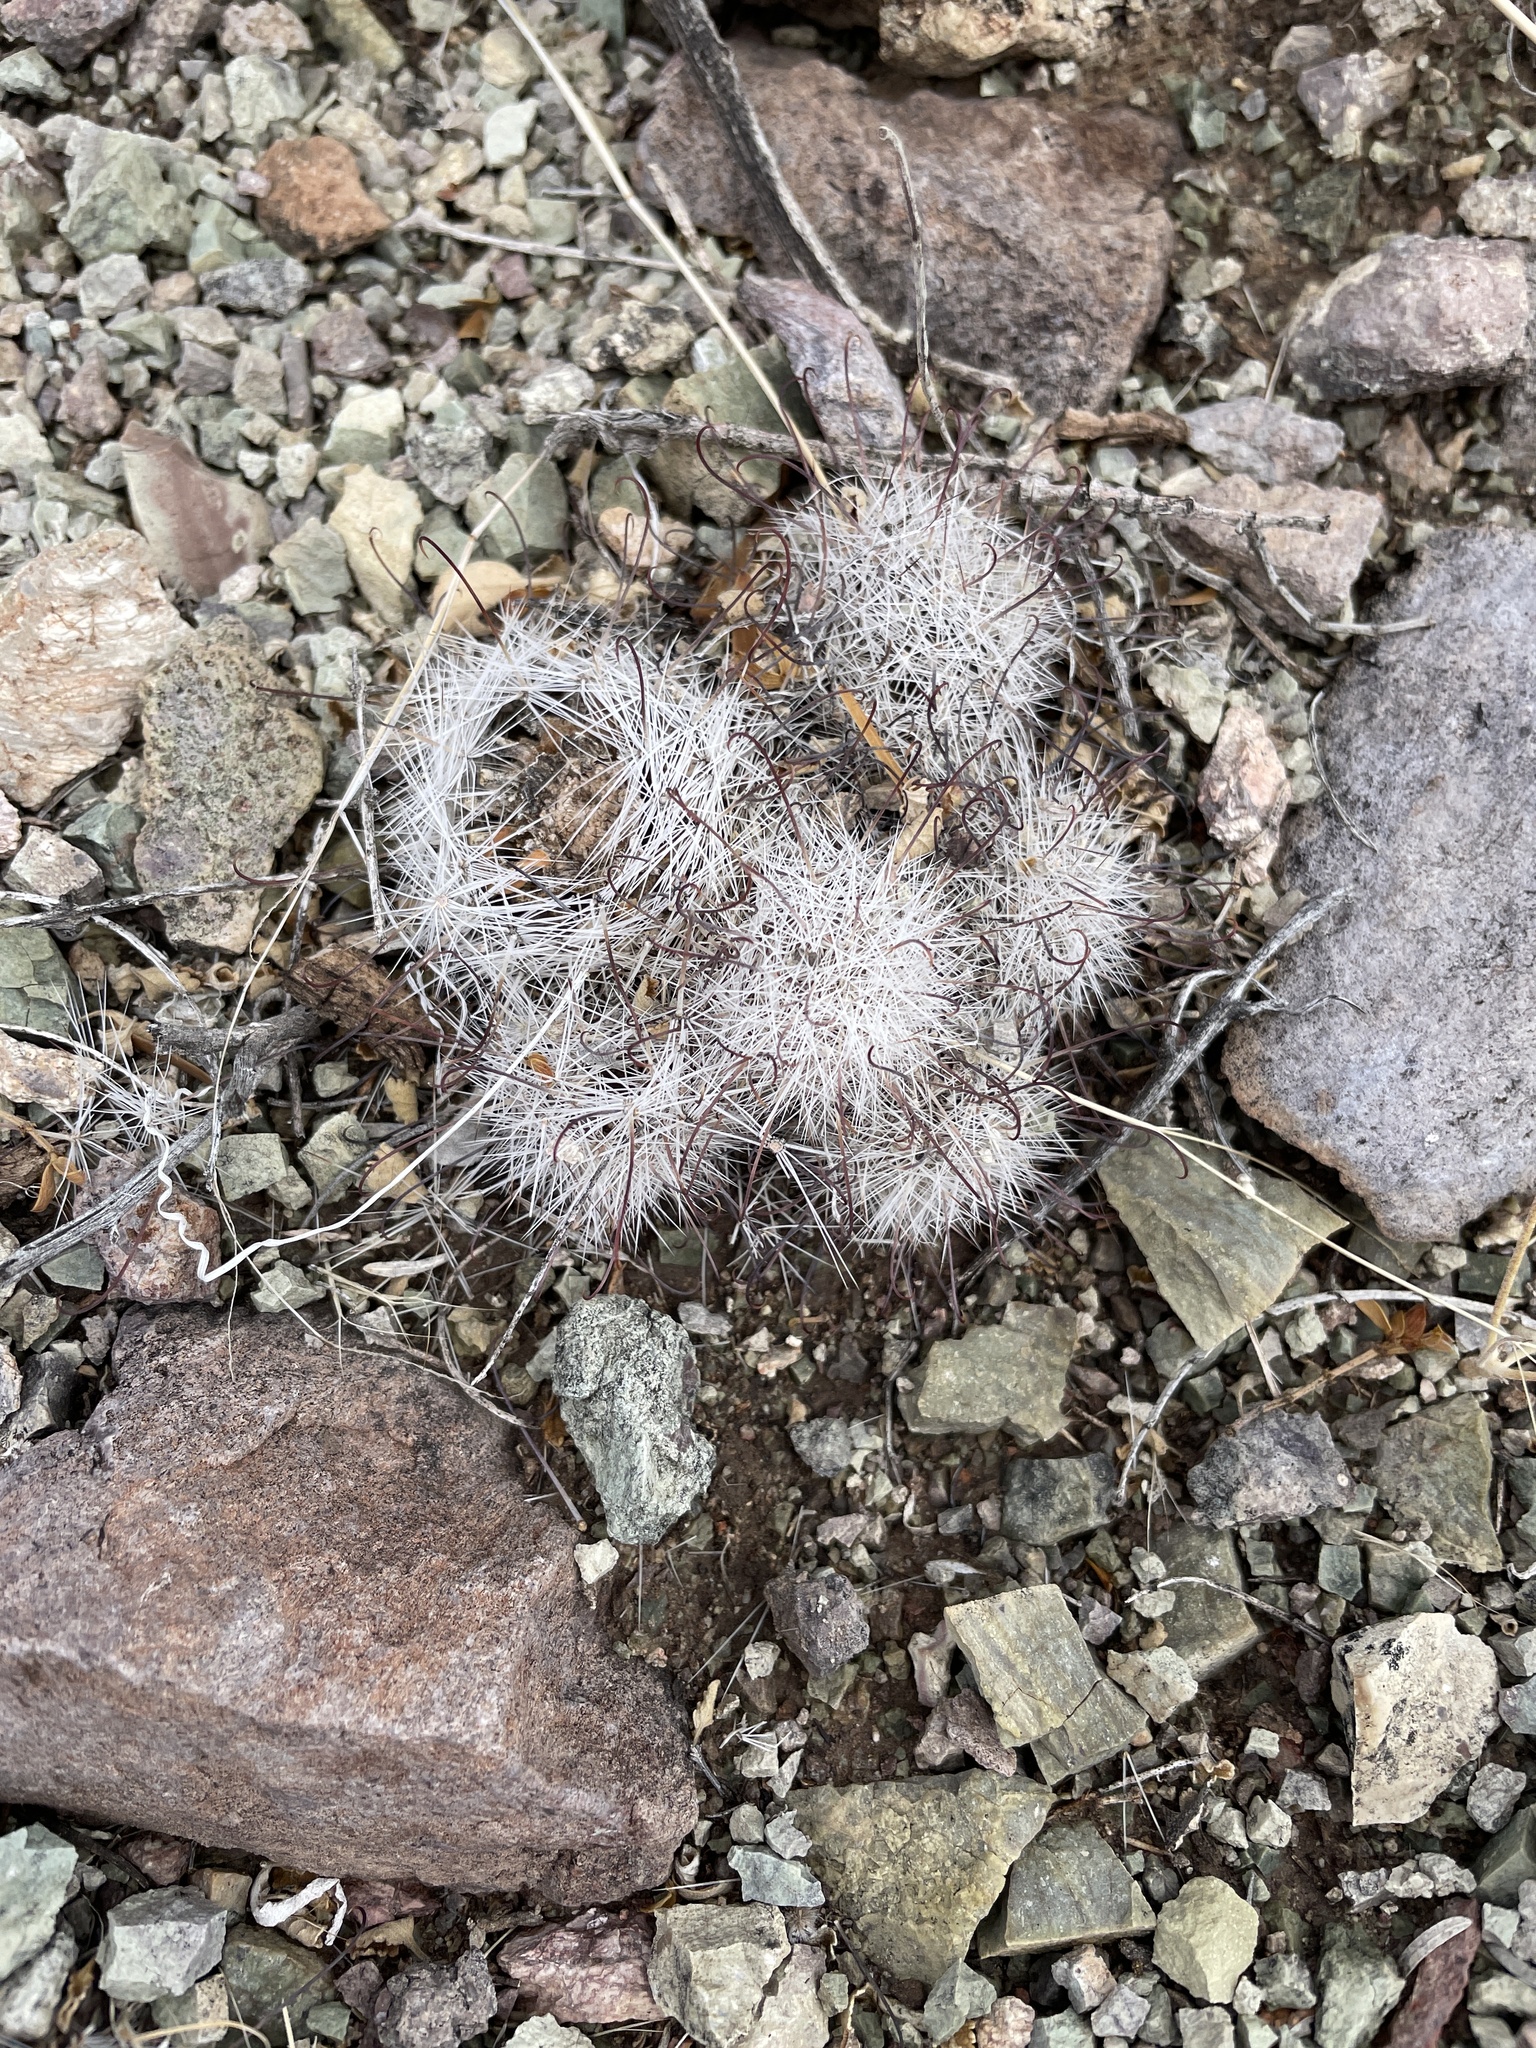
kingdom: Plantae
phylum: Tracheophyta
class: Magnoliopsida
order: Caryophyllales
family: Cactaceae
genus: Cochemiea
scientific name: Cochemiea grahamii
